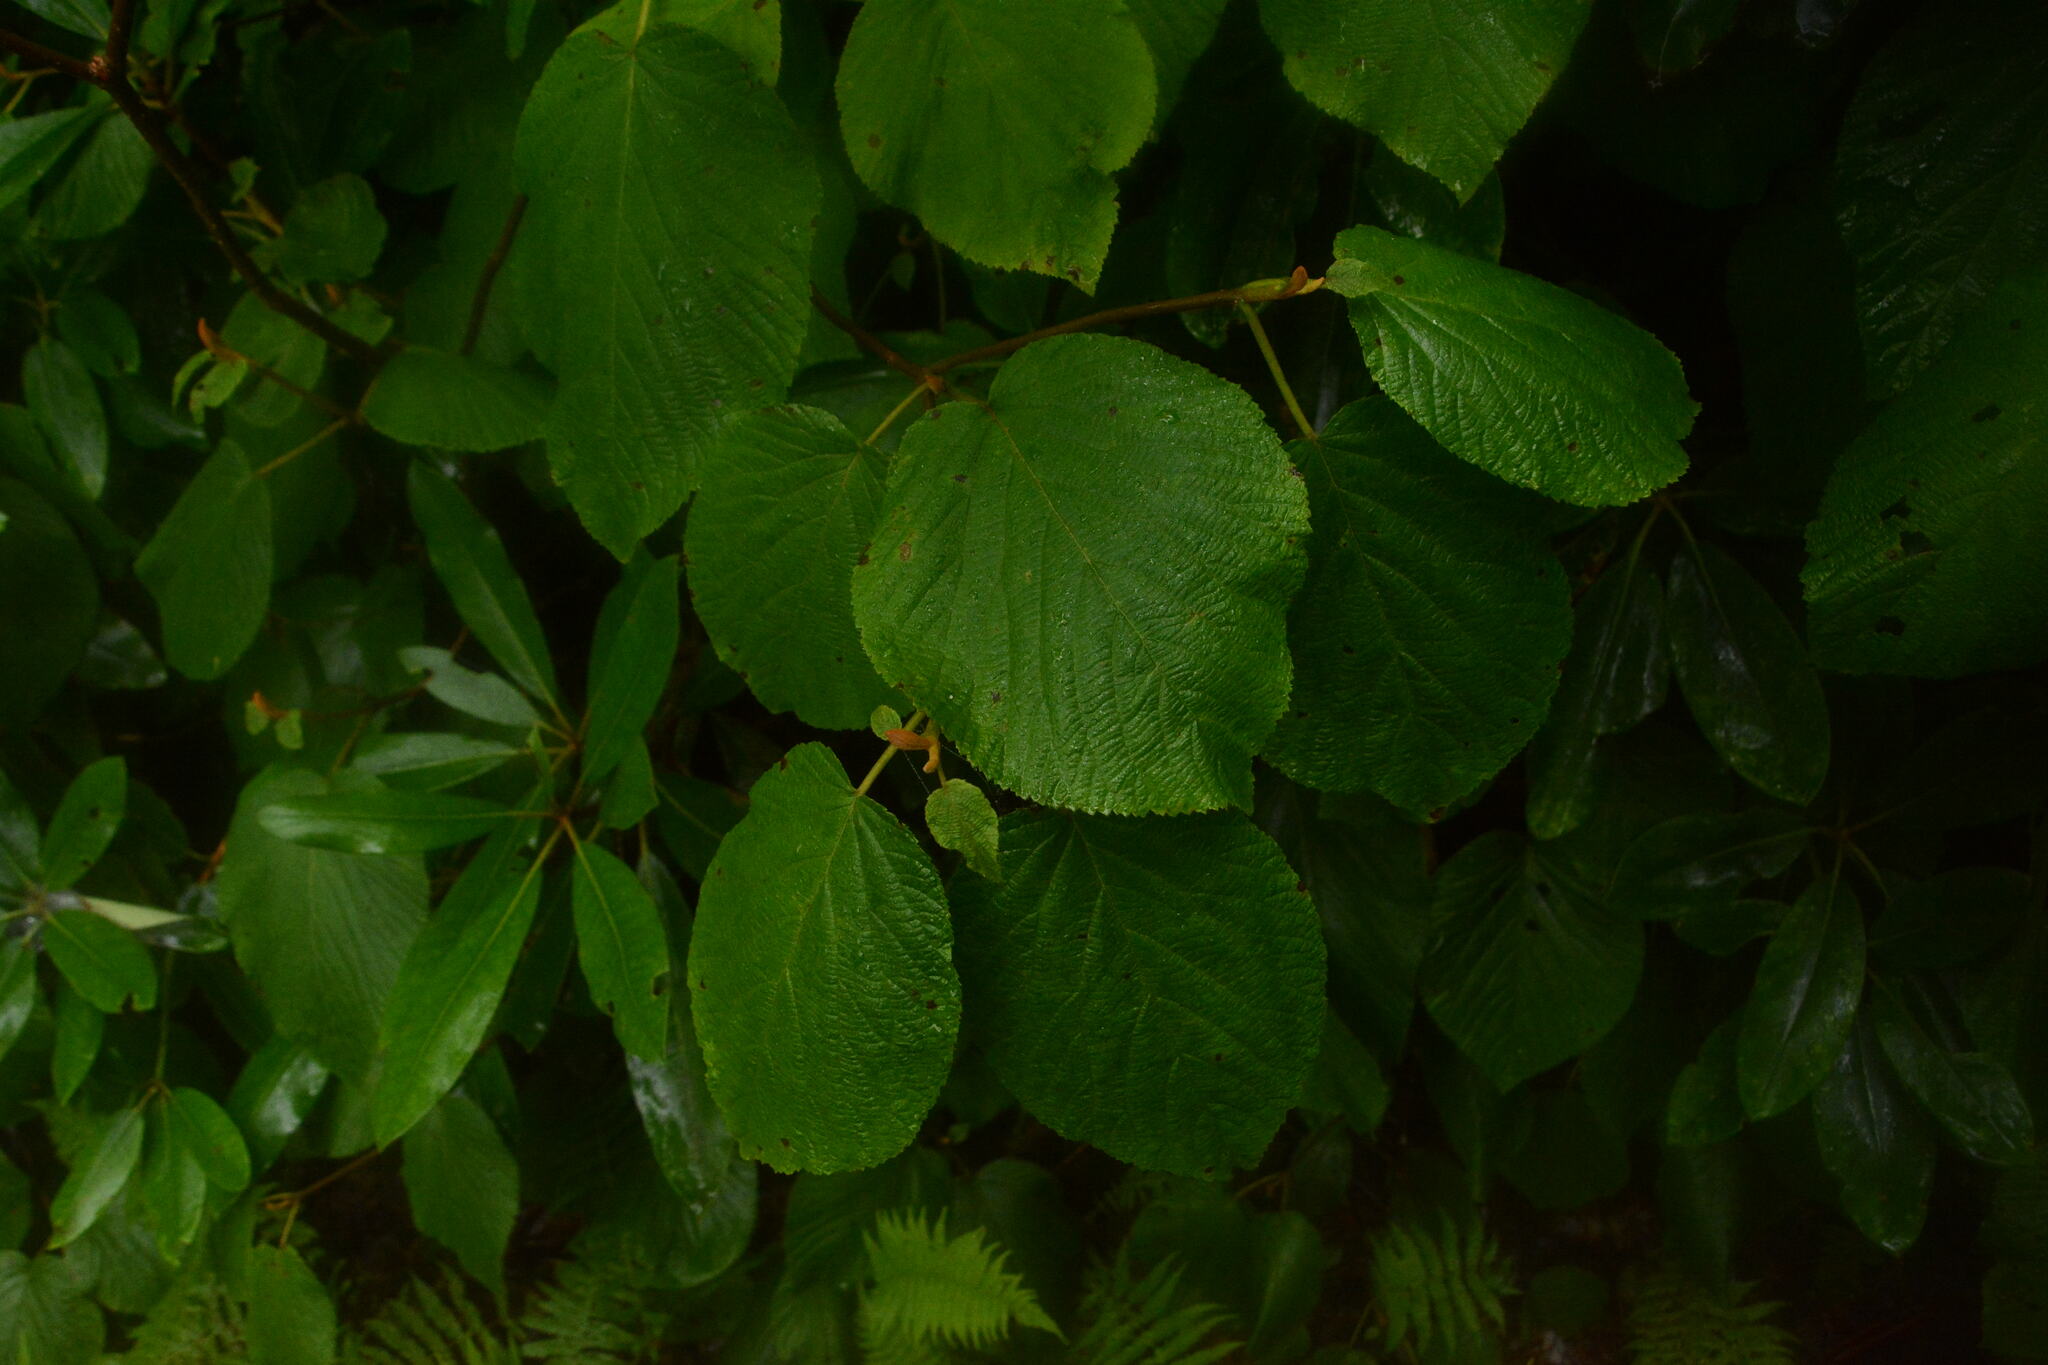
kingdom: Plantae
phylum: Tracheophyta
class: Magnoliopsida
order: Dipsacales
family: Viburnaceae
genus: Viburnum
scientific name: Viburnum lantanoides
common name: Hobblebush
